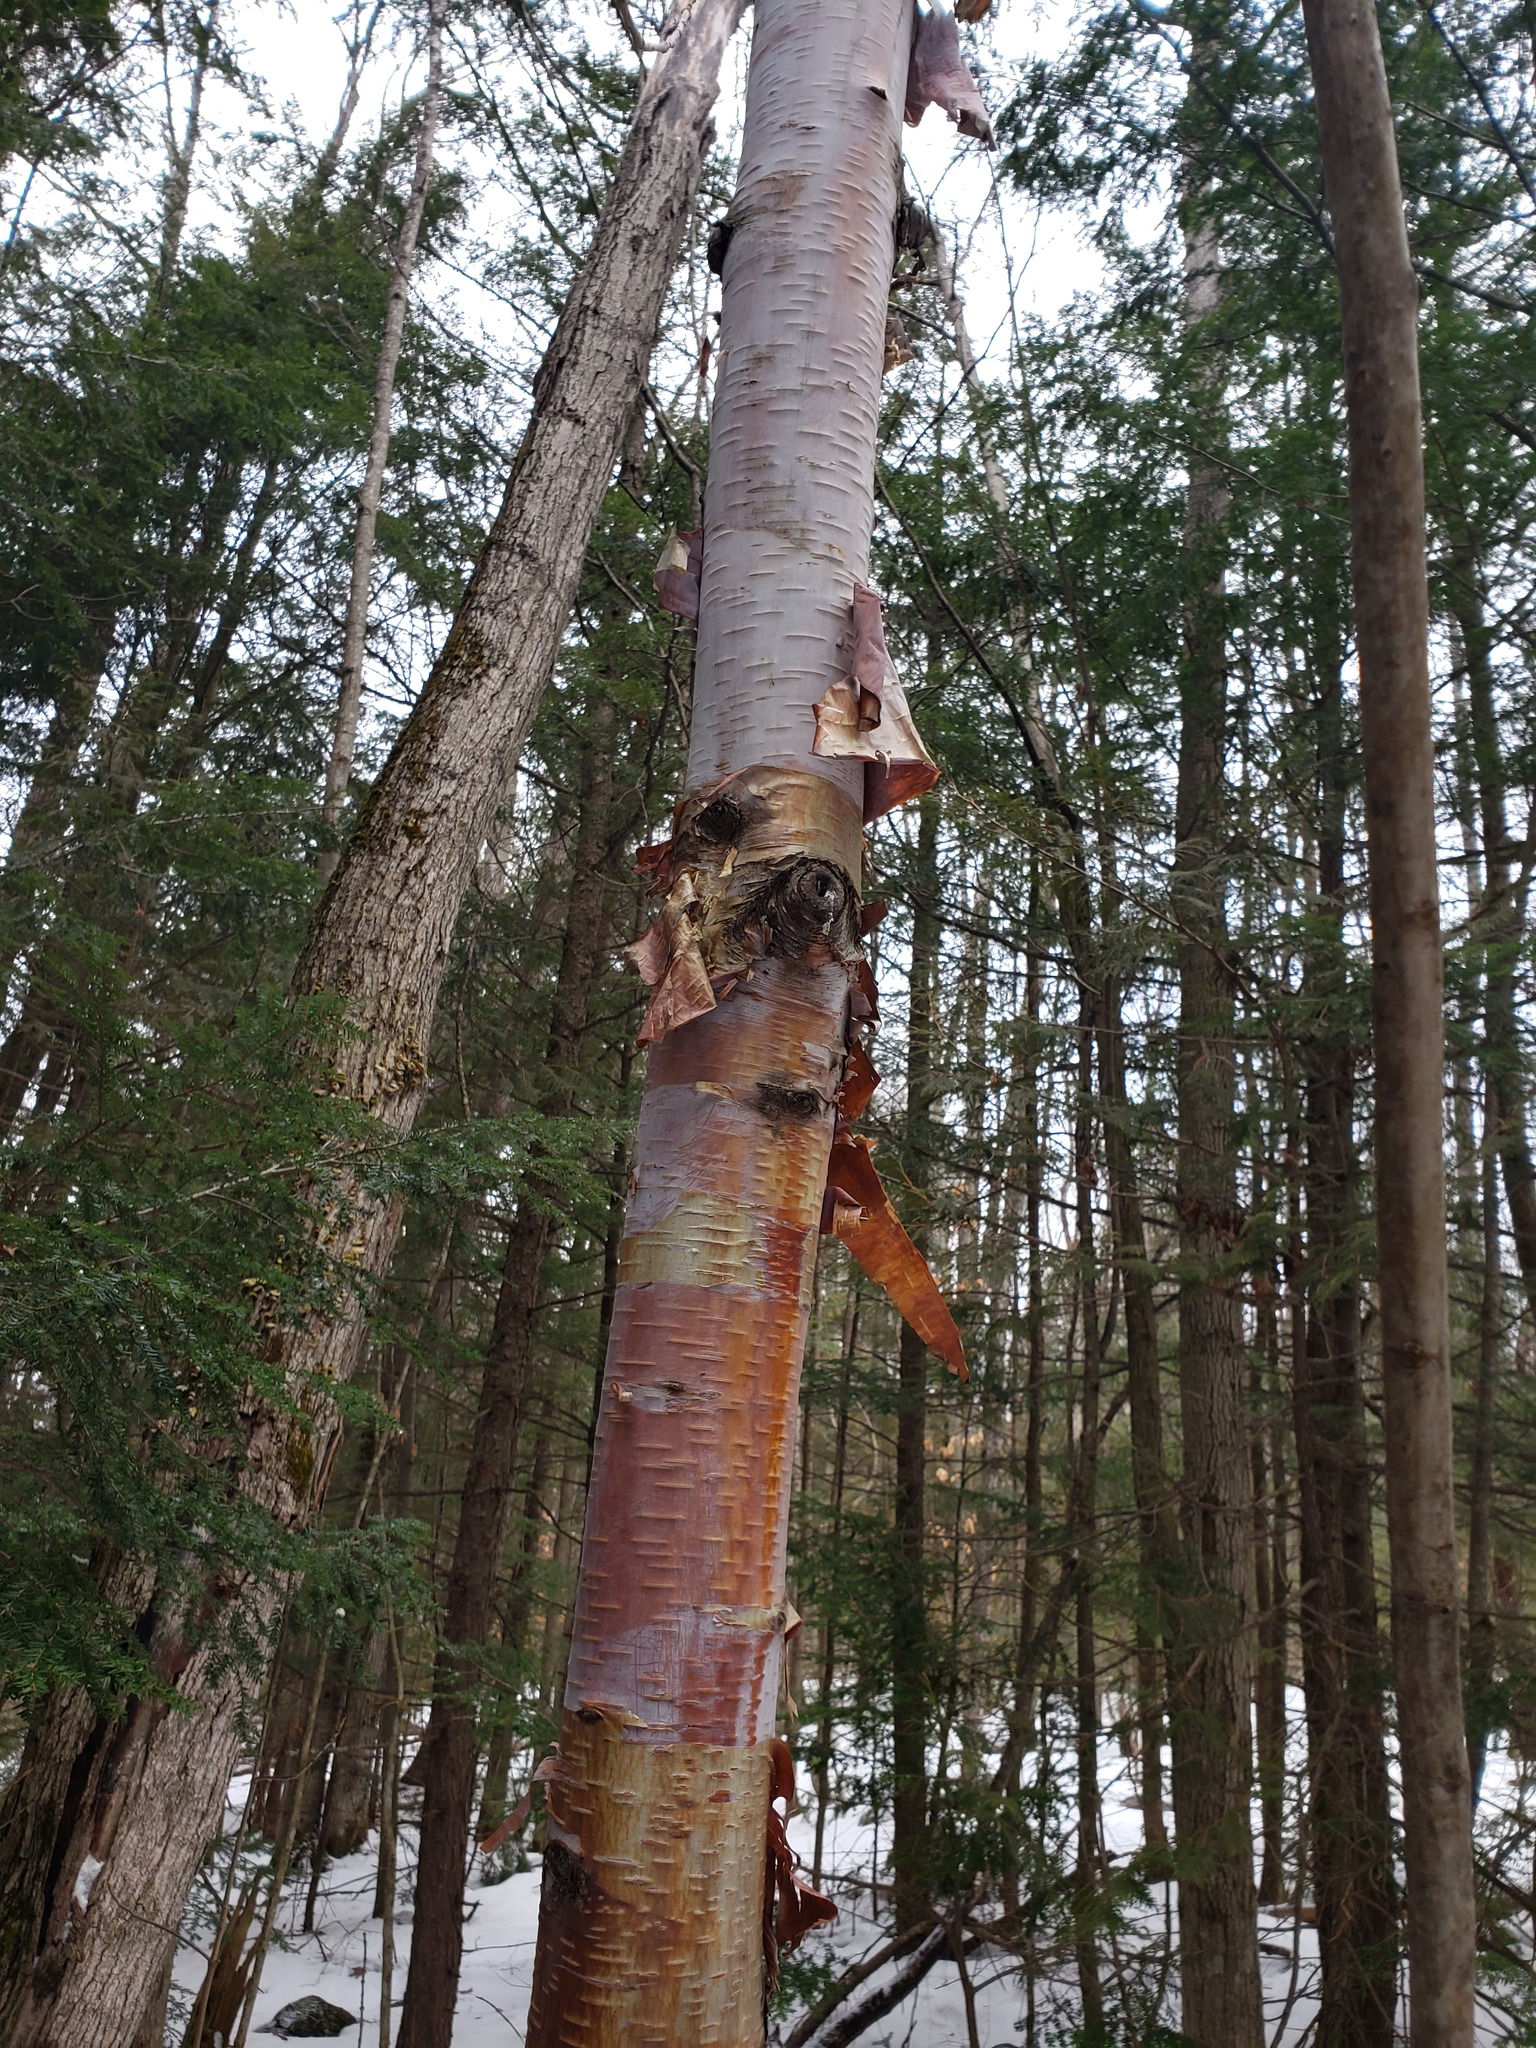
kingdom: Plantae
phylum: Tracheophyta
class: Magnoliopsida
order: Fagales
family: Betulaceae
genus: Betula
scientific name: Betula papyrifera
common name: Paper birch
